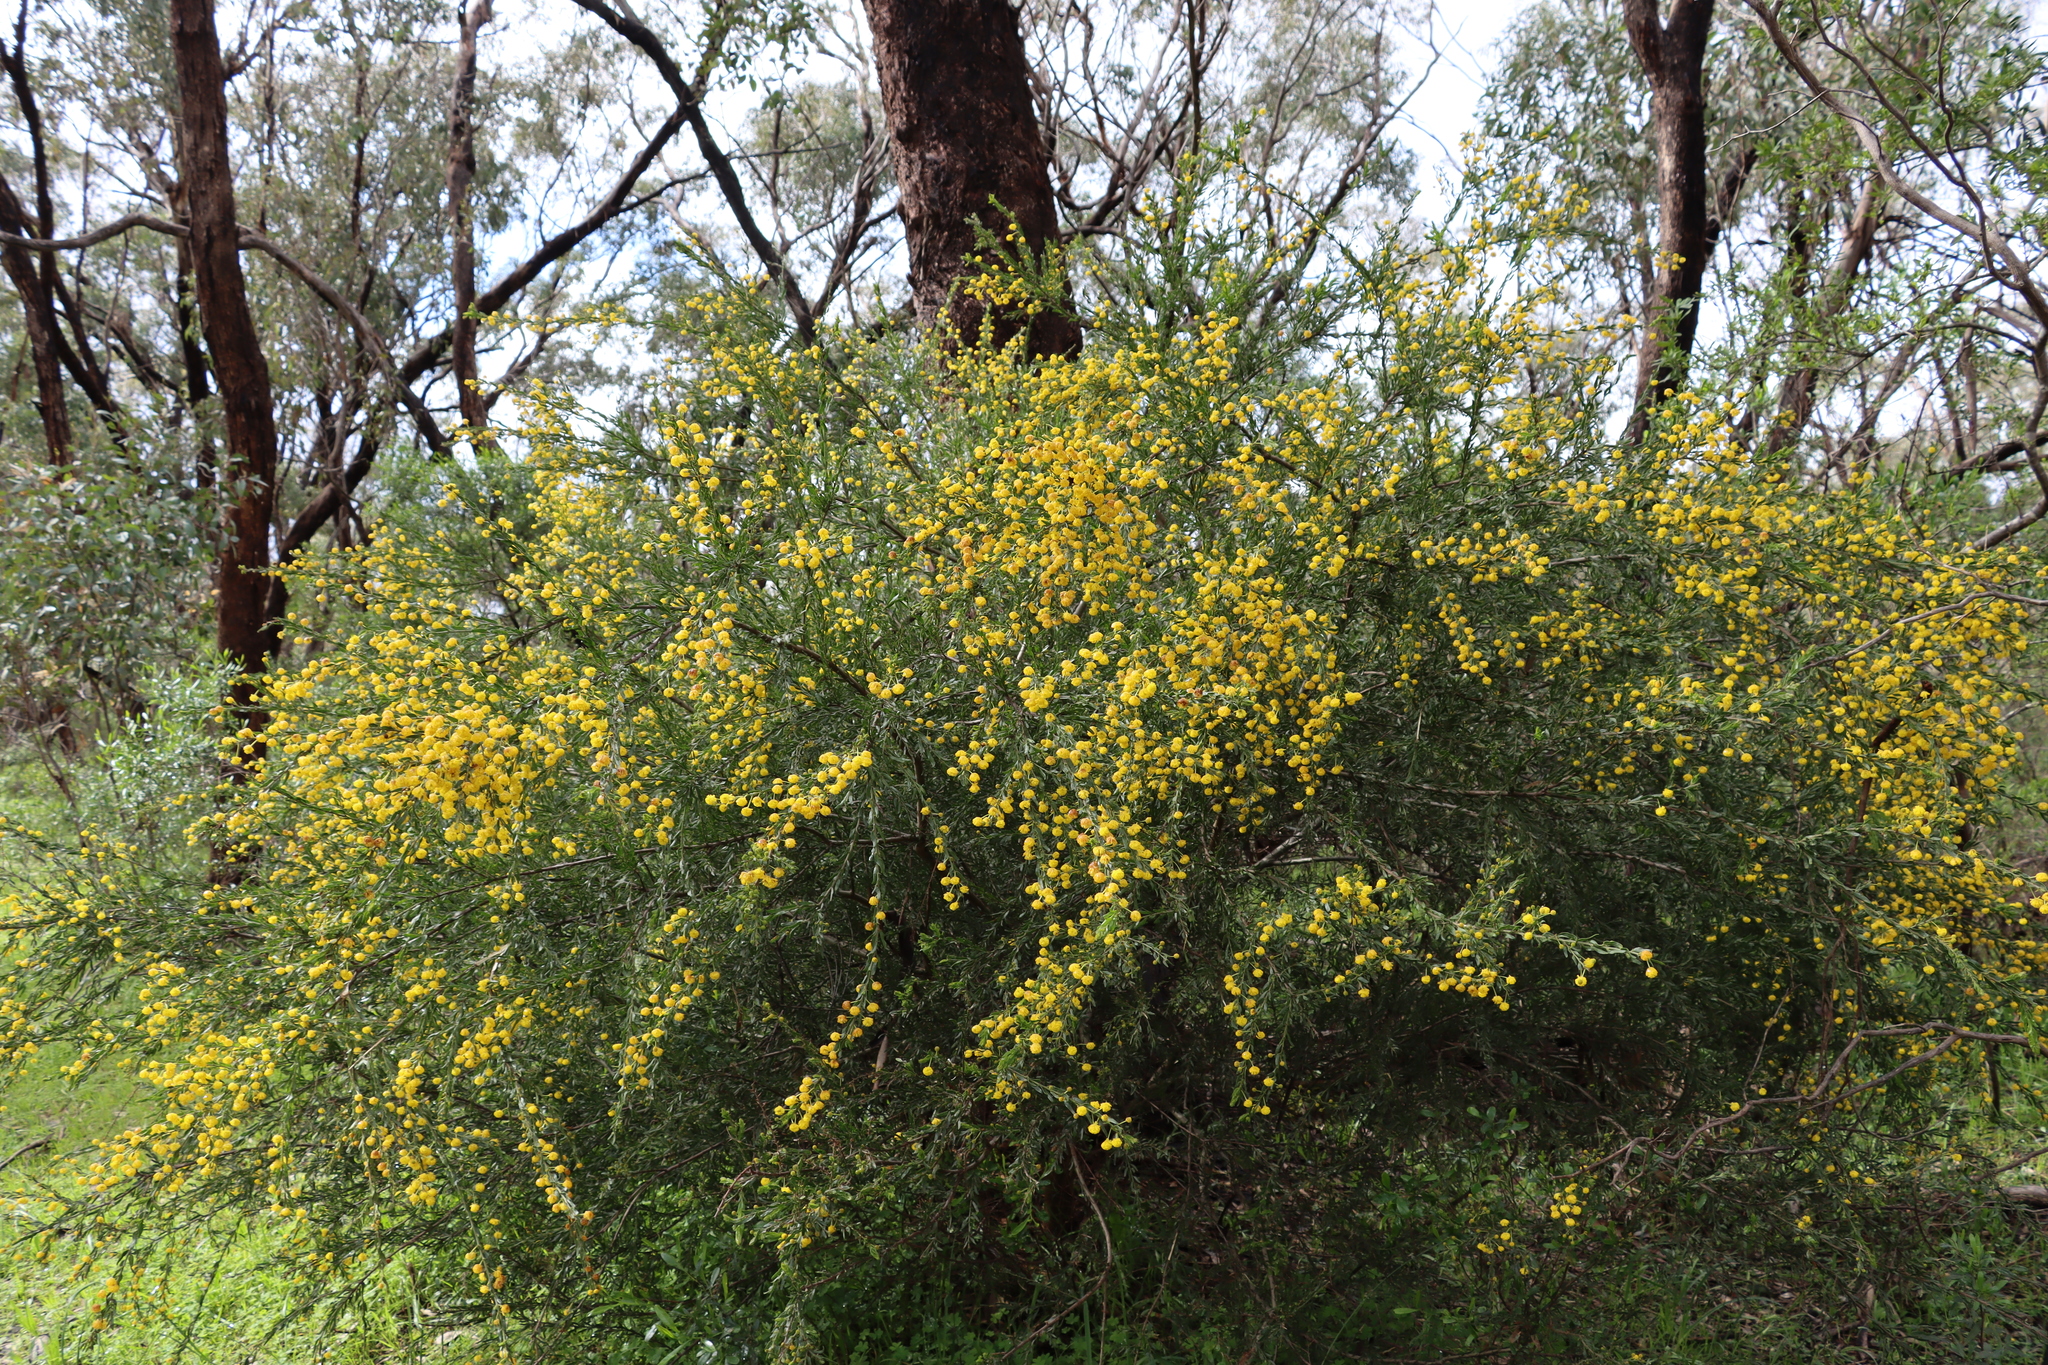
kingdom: Plantae
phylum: Tracheophyta
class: Magnoliopsida
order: Fabales
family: Fabaceae
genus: Acacia
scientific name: Acacia paradoxa
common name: Paradox acacia
